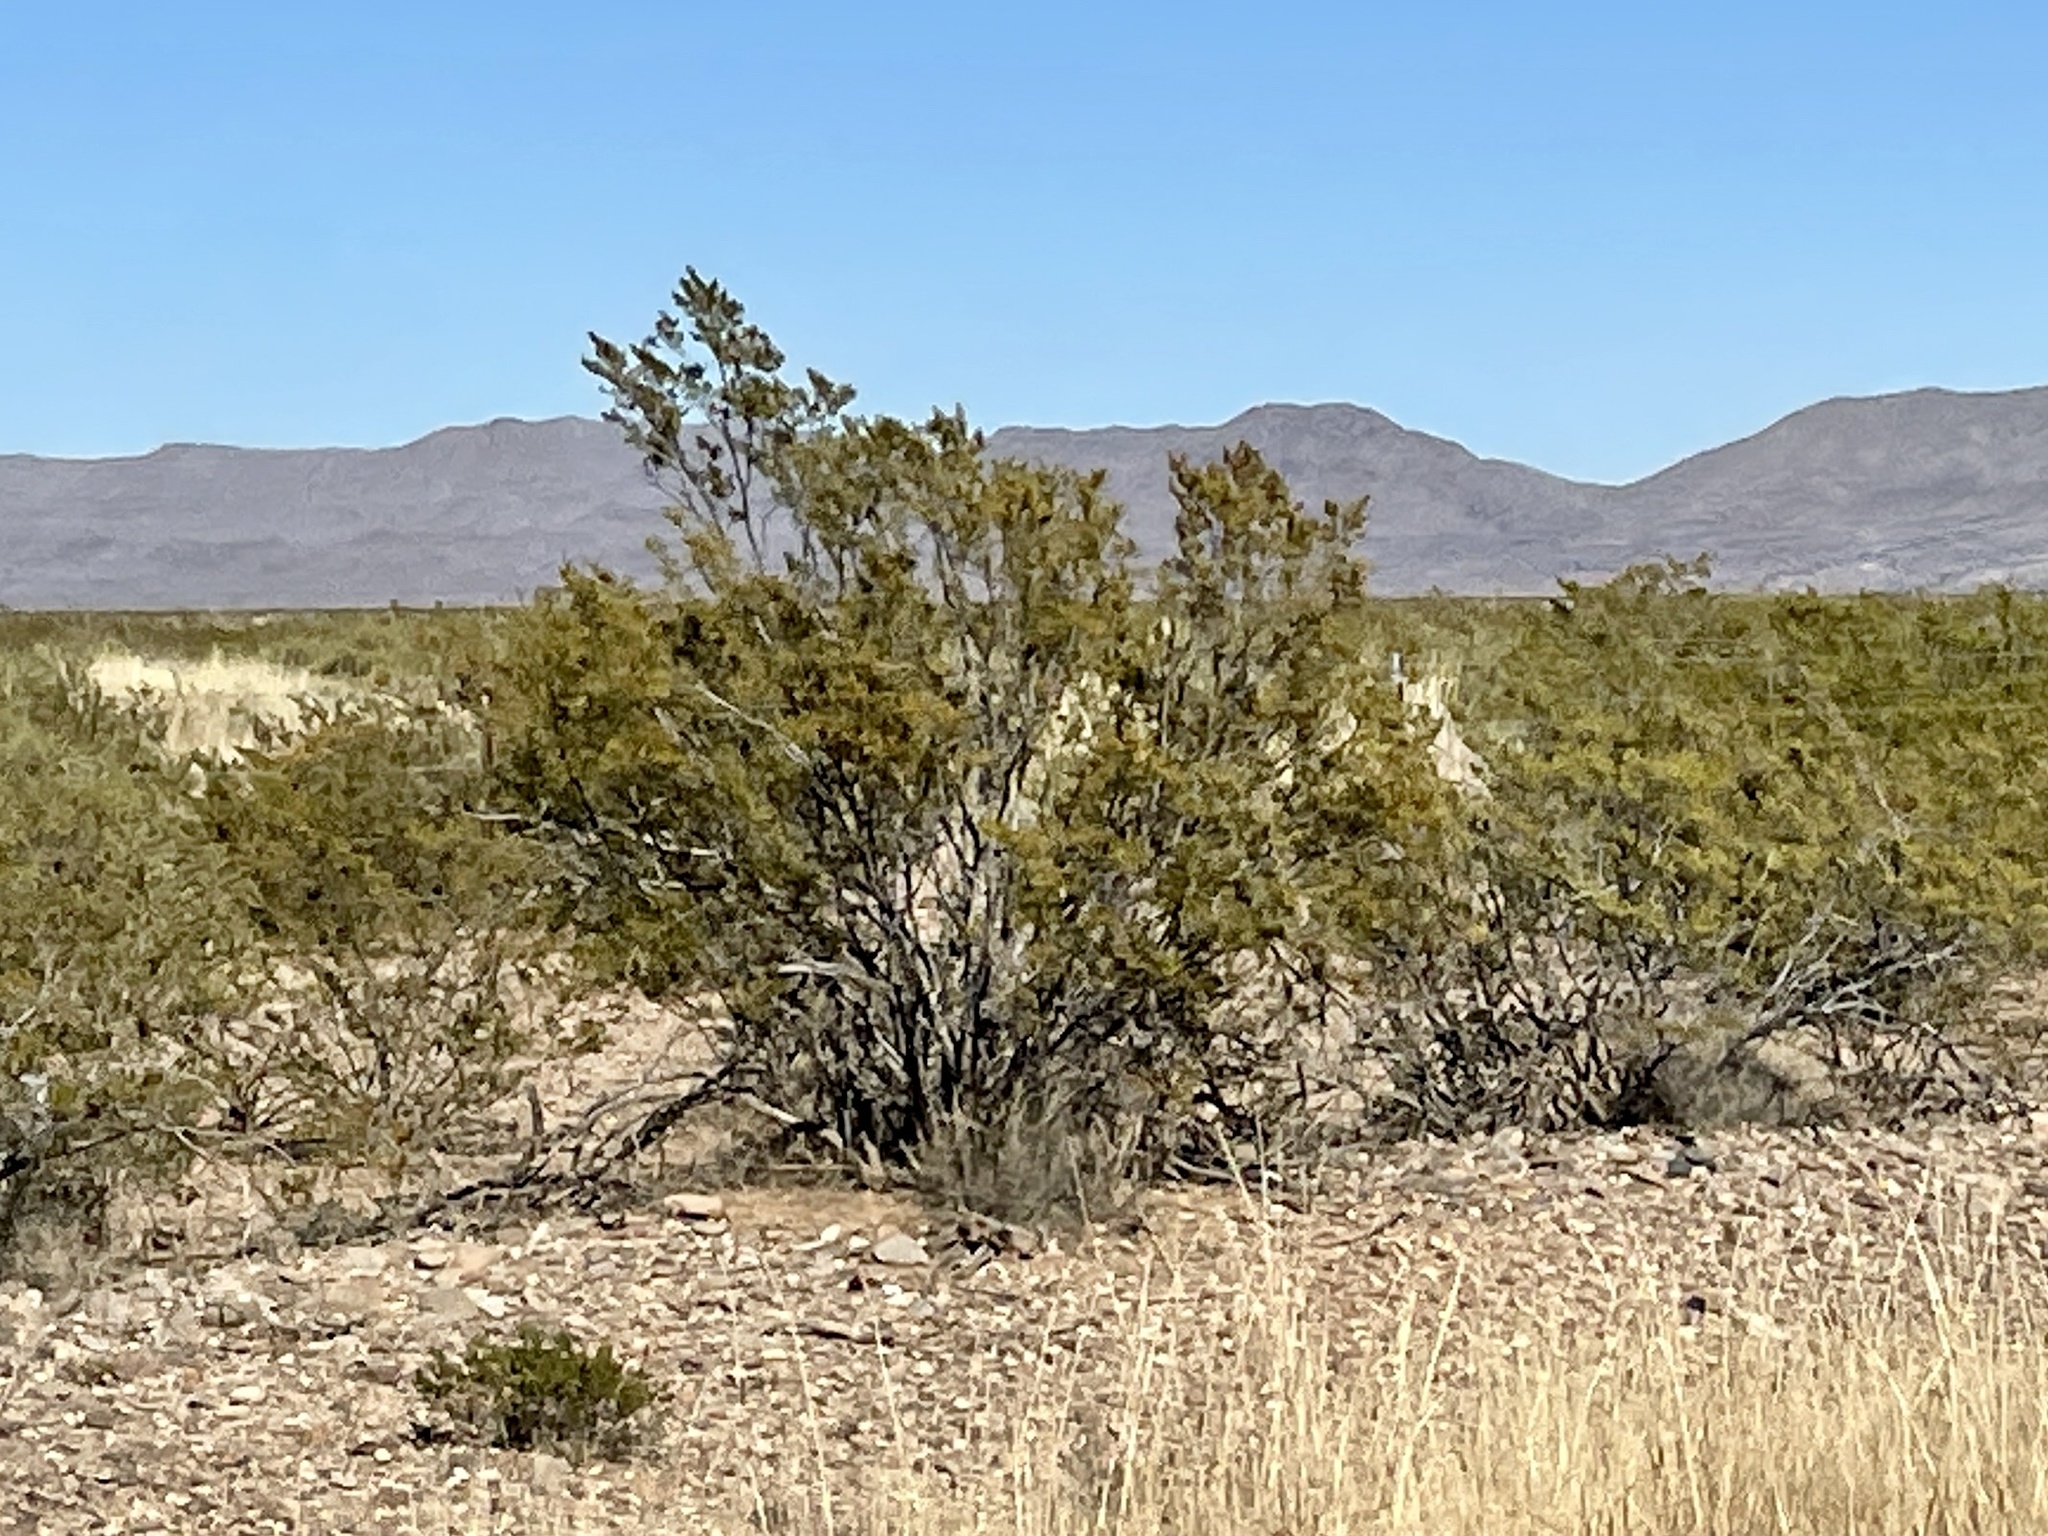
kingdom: Plantae
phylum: Tracheophyta
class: Magnoliopsida
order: Zygophyllales
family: Zygophyllaceae
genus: Larrea
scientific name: Larrea tridentata
